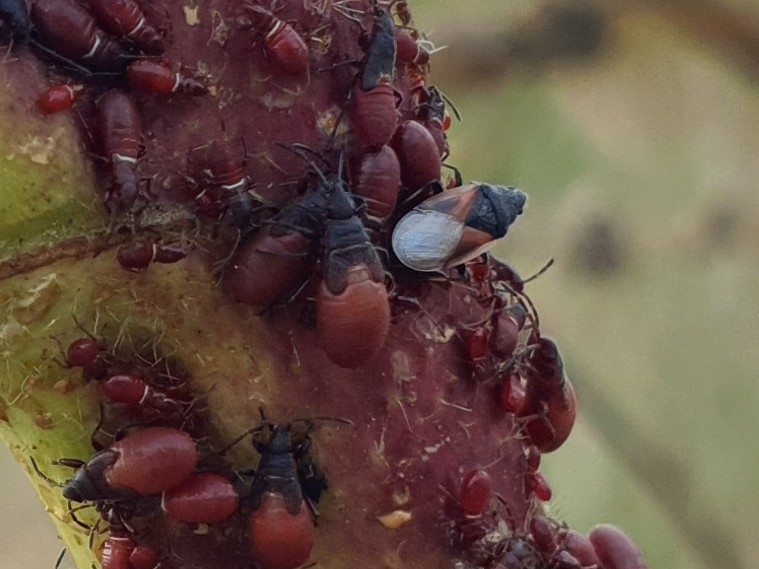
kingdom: Animalia
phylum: Arthropoda
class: Insecta
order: Hemiptera
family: Oxycarenidae
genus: Oxycarenus
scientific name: Oxycarenus lavaterae
